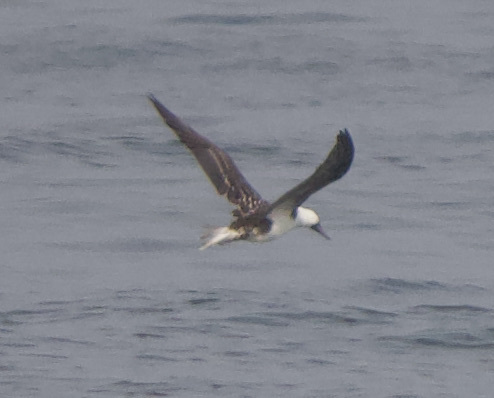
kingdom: Animalia
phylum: Chordata
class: Aves
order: Suliformes
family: Sulidae
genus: Sula
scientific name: Sula variegata
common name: Peruvian booby
